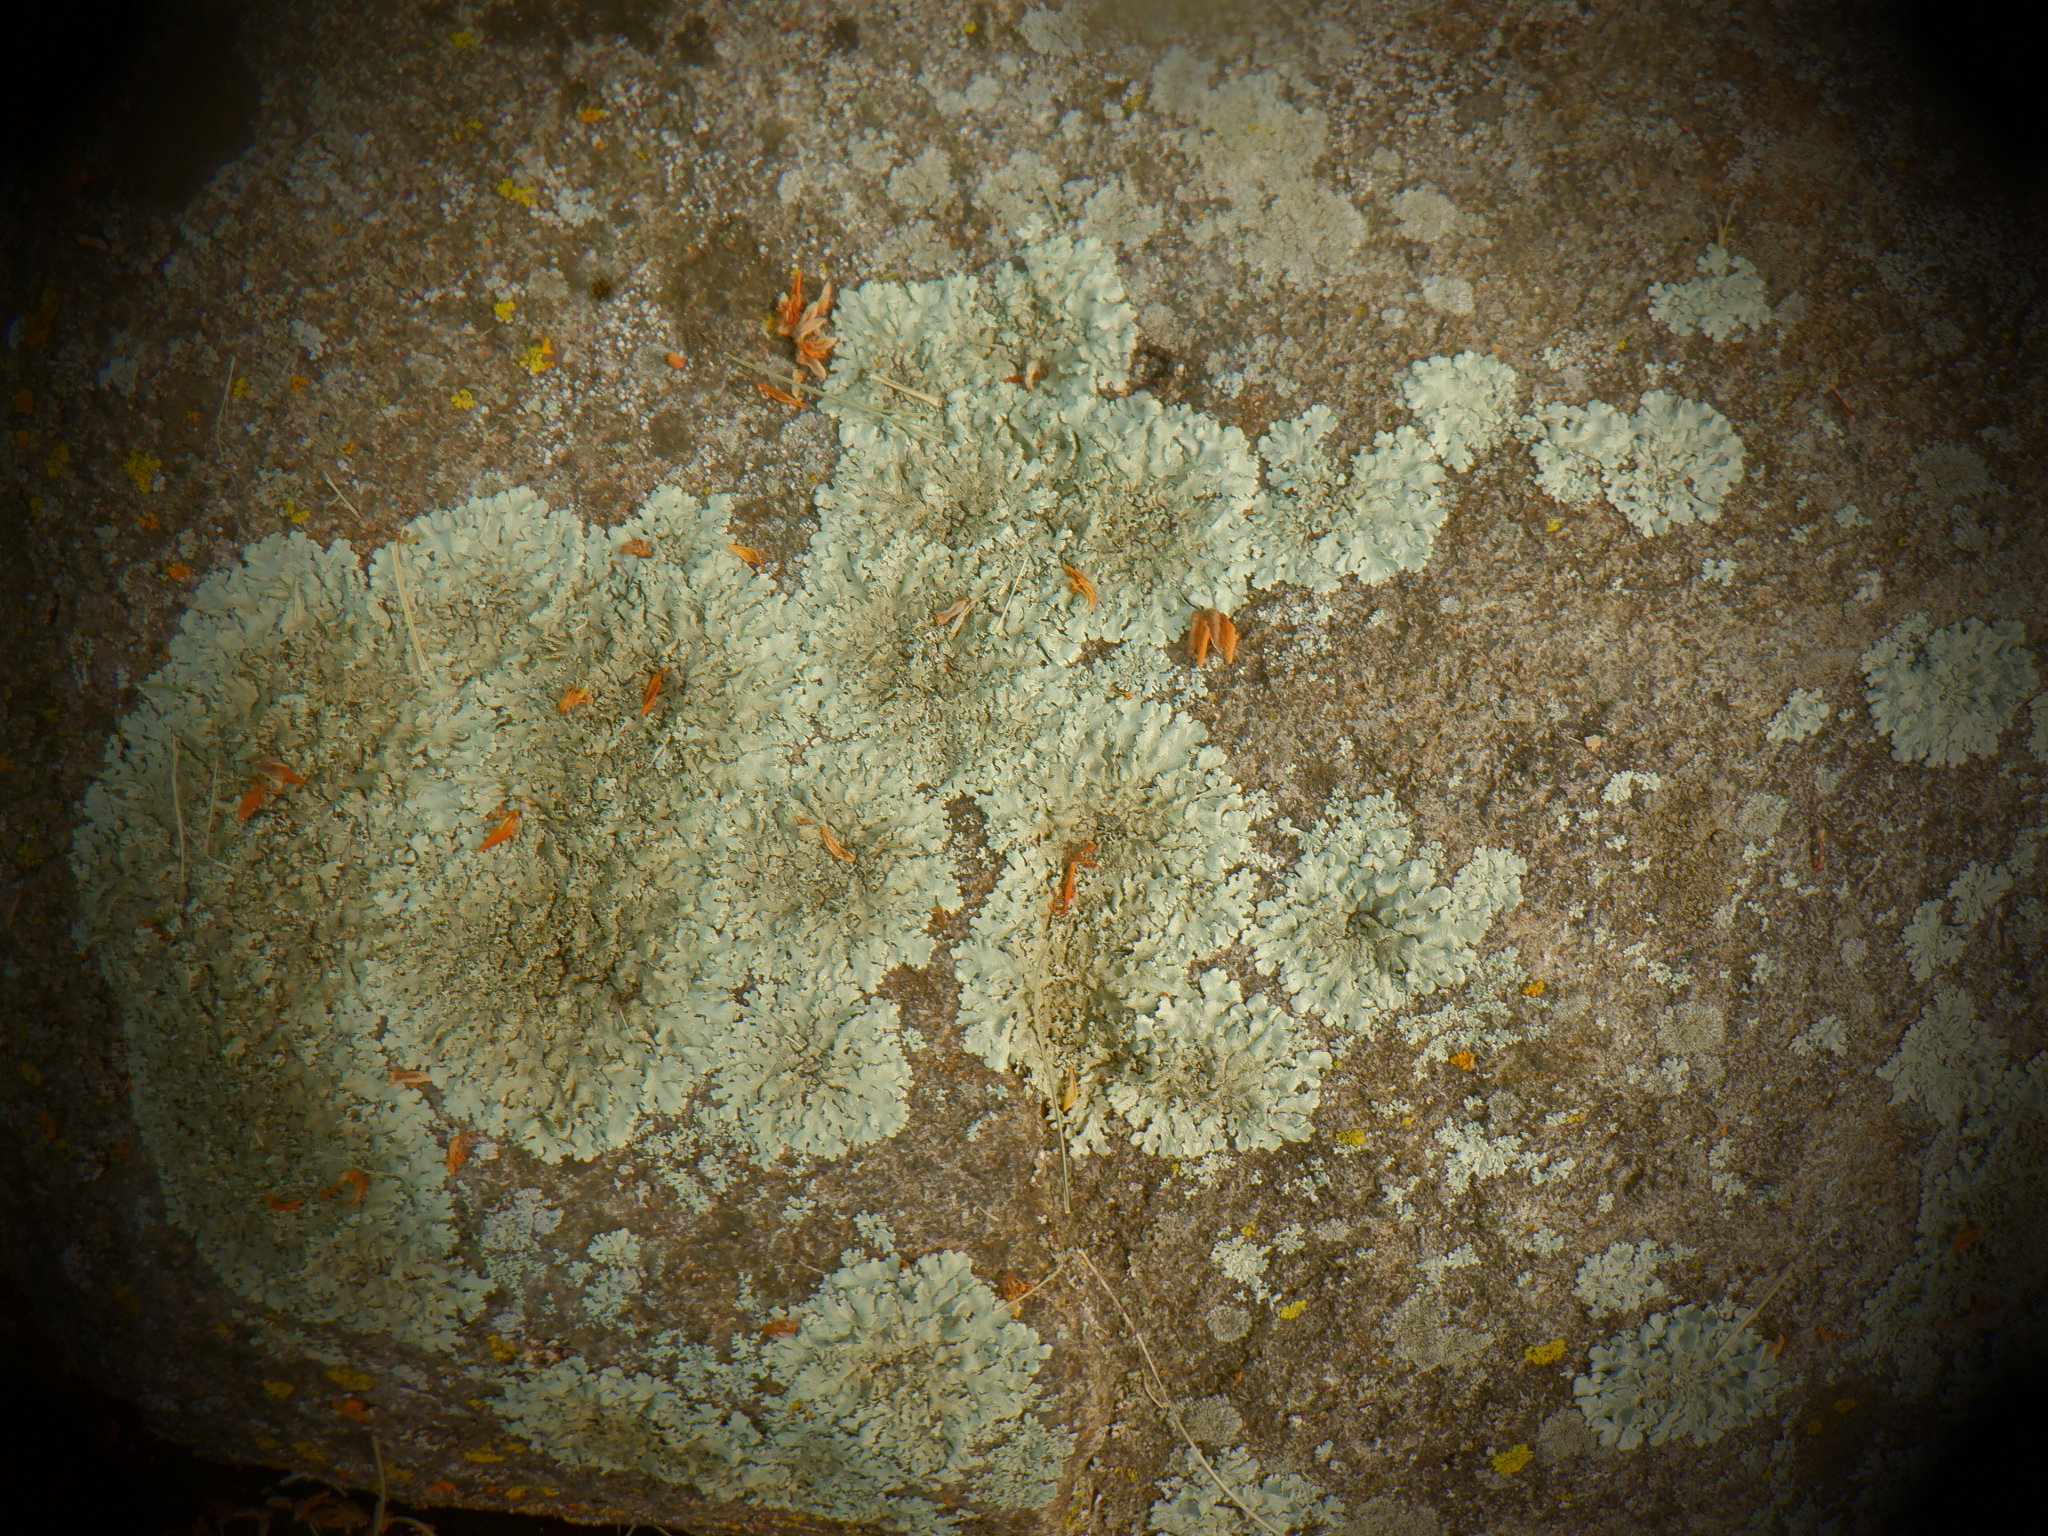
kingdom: Fungi
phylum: Ascomycota
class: Lecanoromycetes
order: Lecanorales
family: Parmeliaceae
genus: Xanthoparmelia
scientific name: Xanthoparmelia
